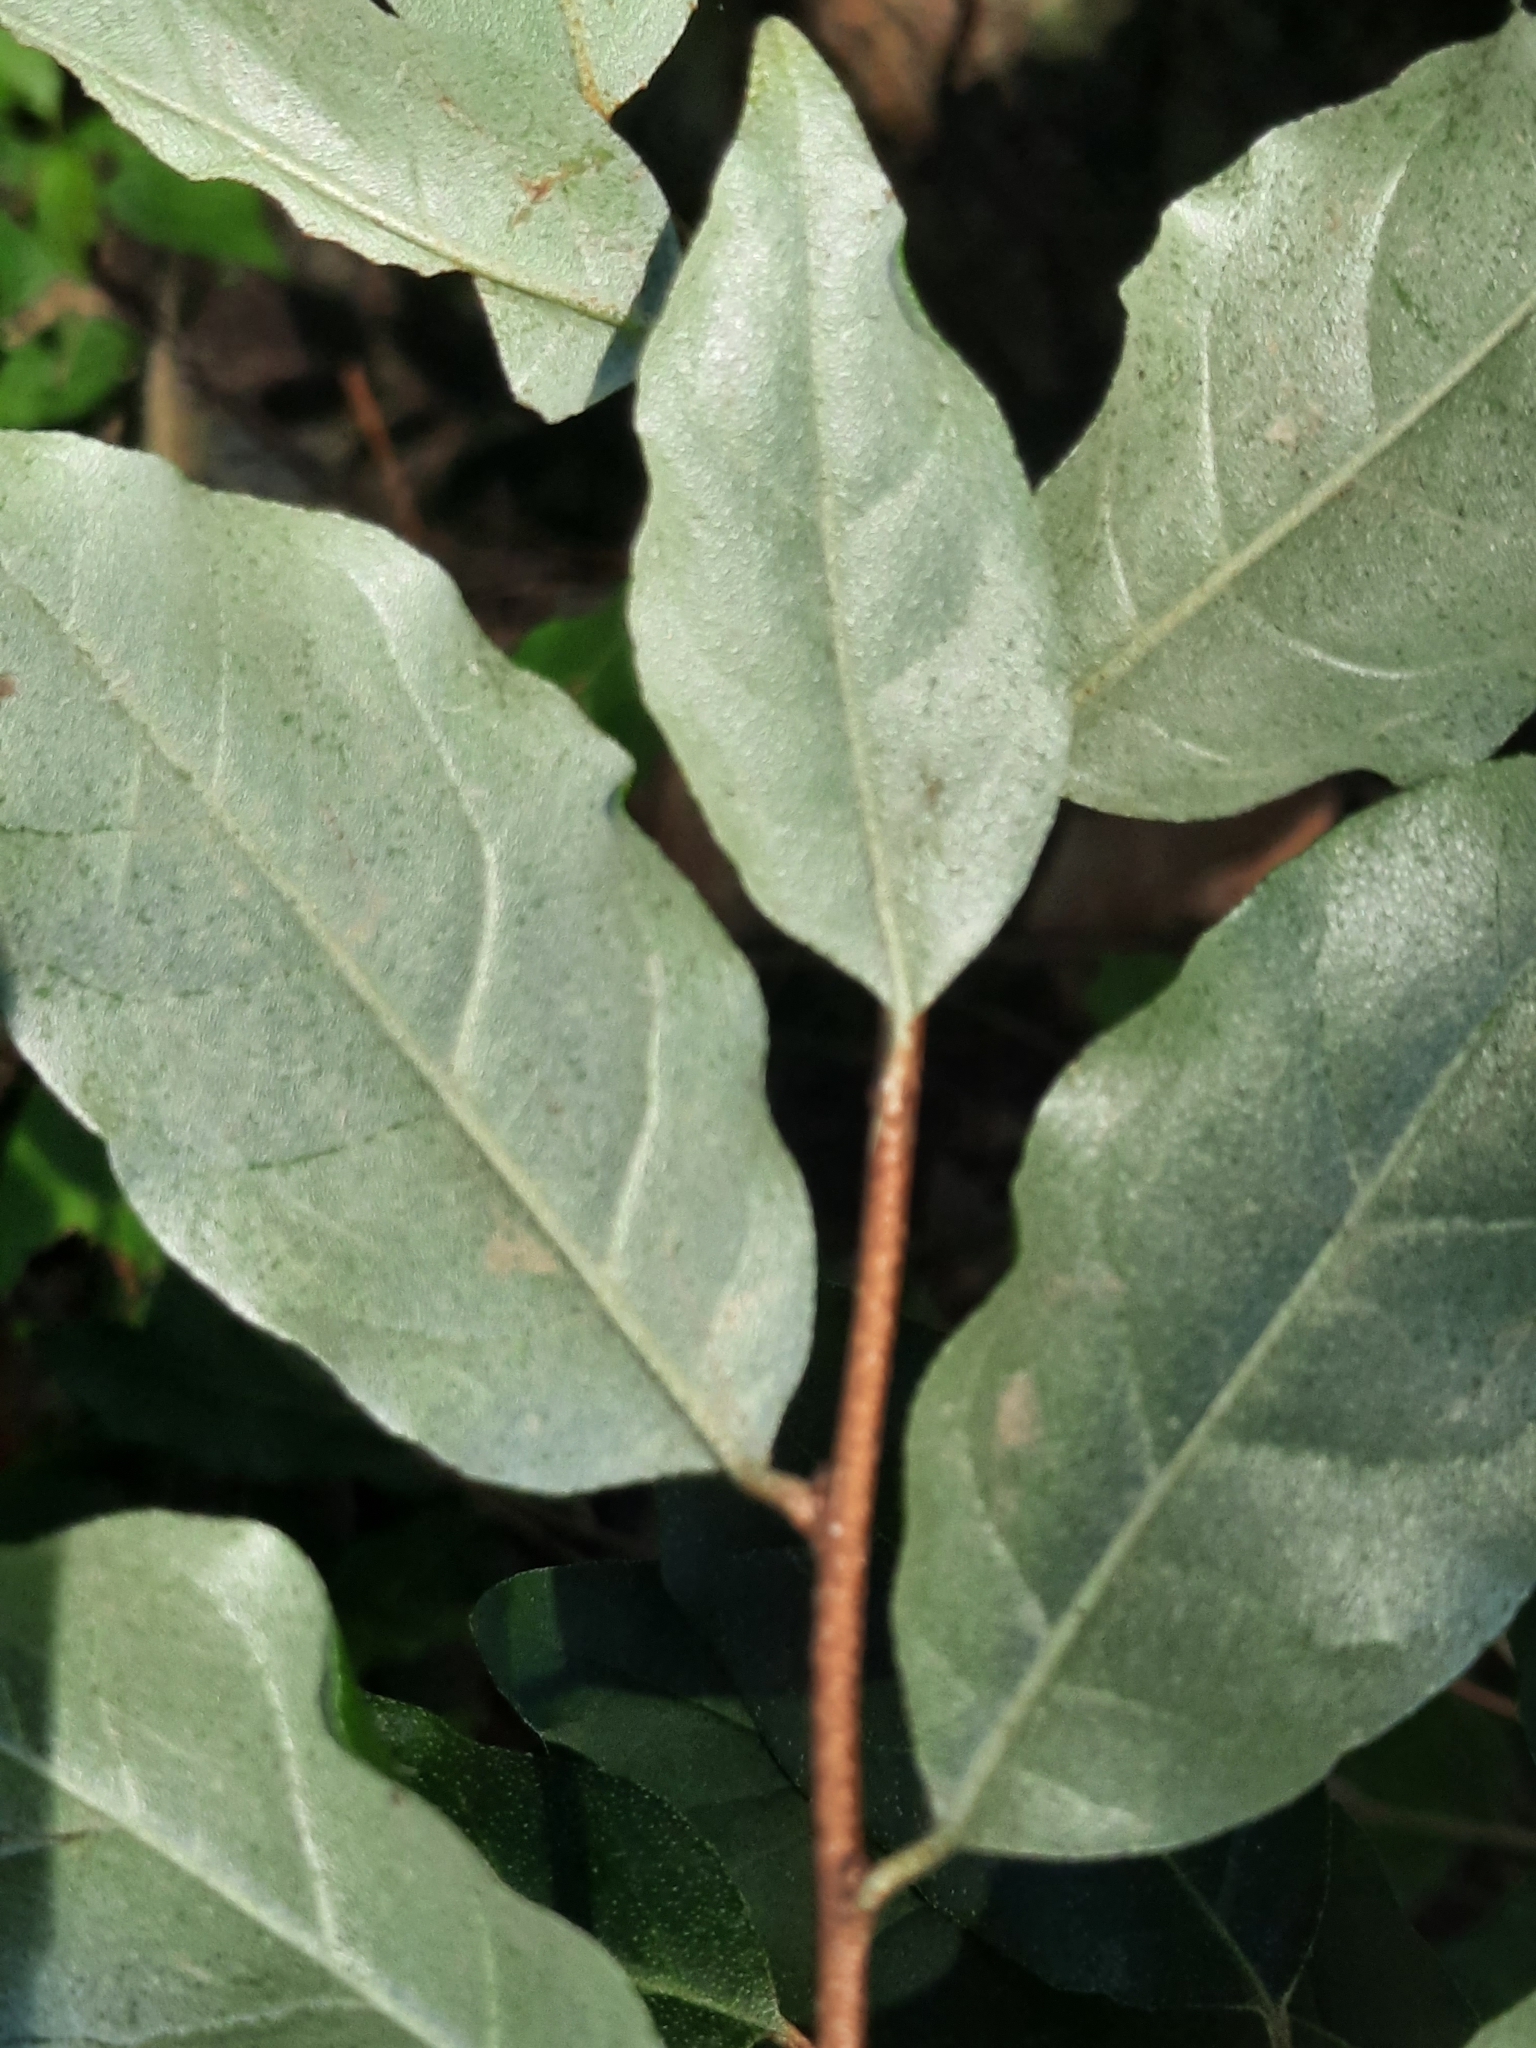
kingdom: Plantae
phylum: Tracheophyta
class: Magnoliopsida
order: Rosales
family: Elaeagnaceae
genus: Elaeagnus
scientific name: Elaeagnus umbellata
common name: Autumn olive
